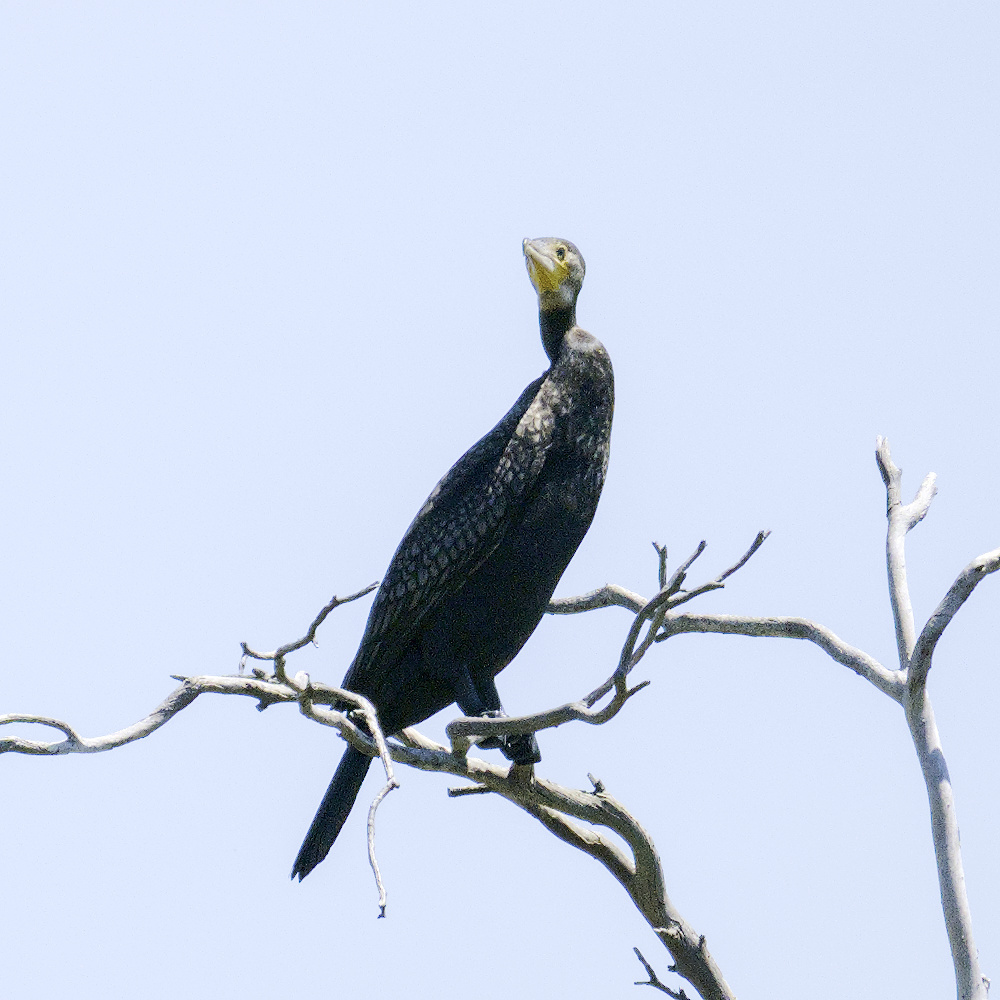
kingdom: Animalia
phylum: Chordata
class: Aves
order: Suliformes
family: Phalacrocoracidae
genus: Phalacrocorax
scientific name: Phalacrocorax carbo
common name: Great cormorant
